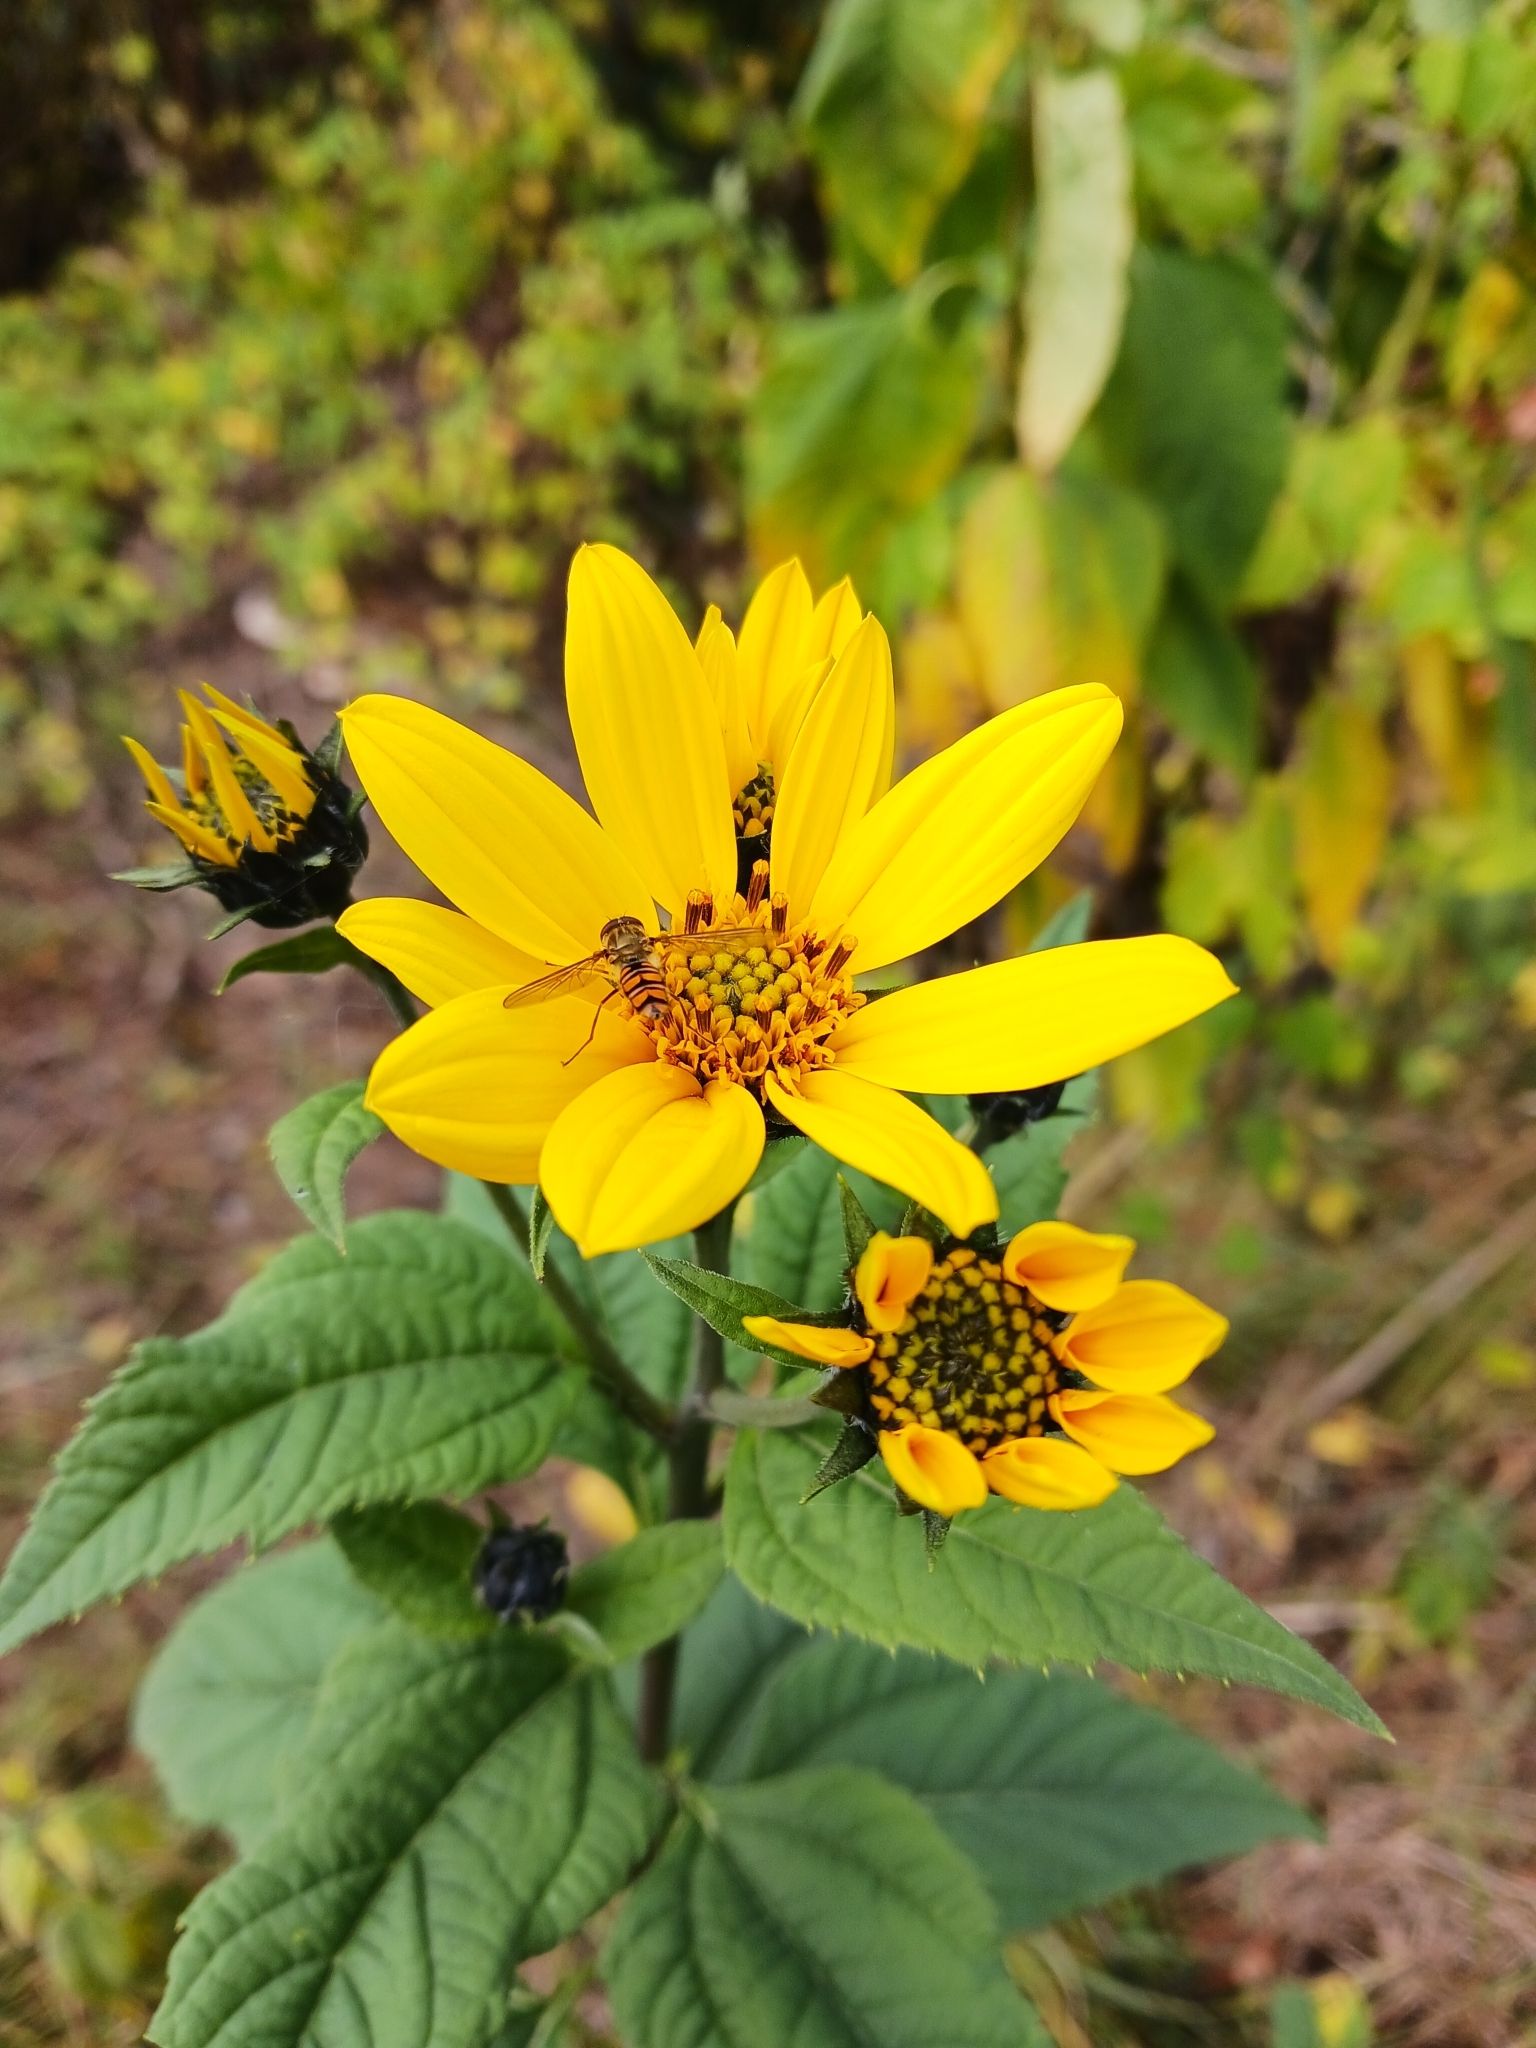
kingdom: Plantae
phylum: Tracheophyta
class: Magnoliopsida
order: Asterales
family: Asteraceae
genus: Helianthus
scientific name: Helianthus tuberosus
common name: Jerusalem artichoke
